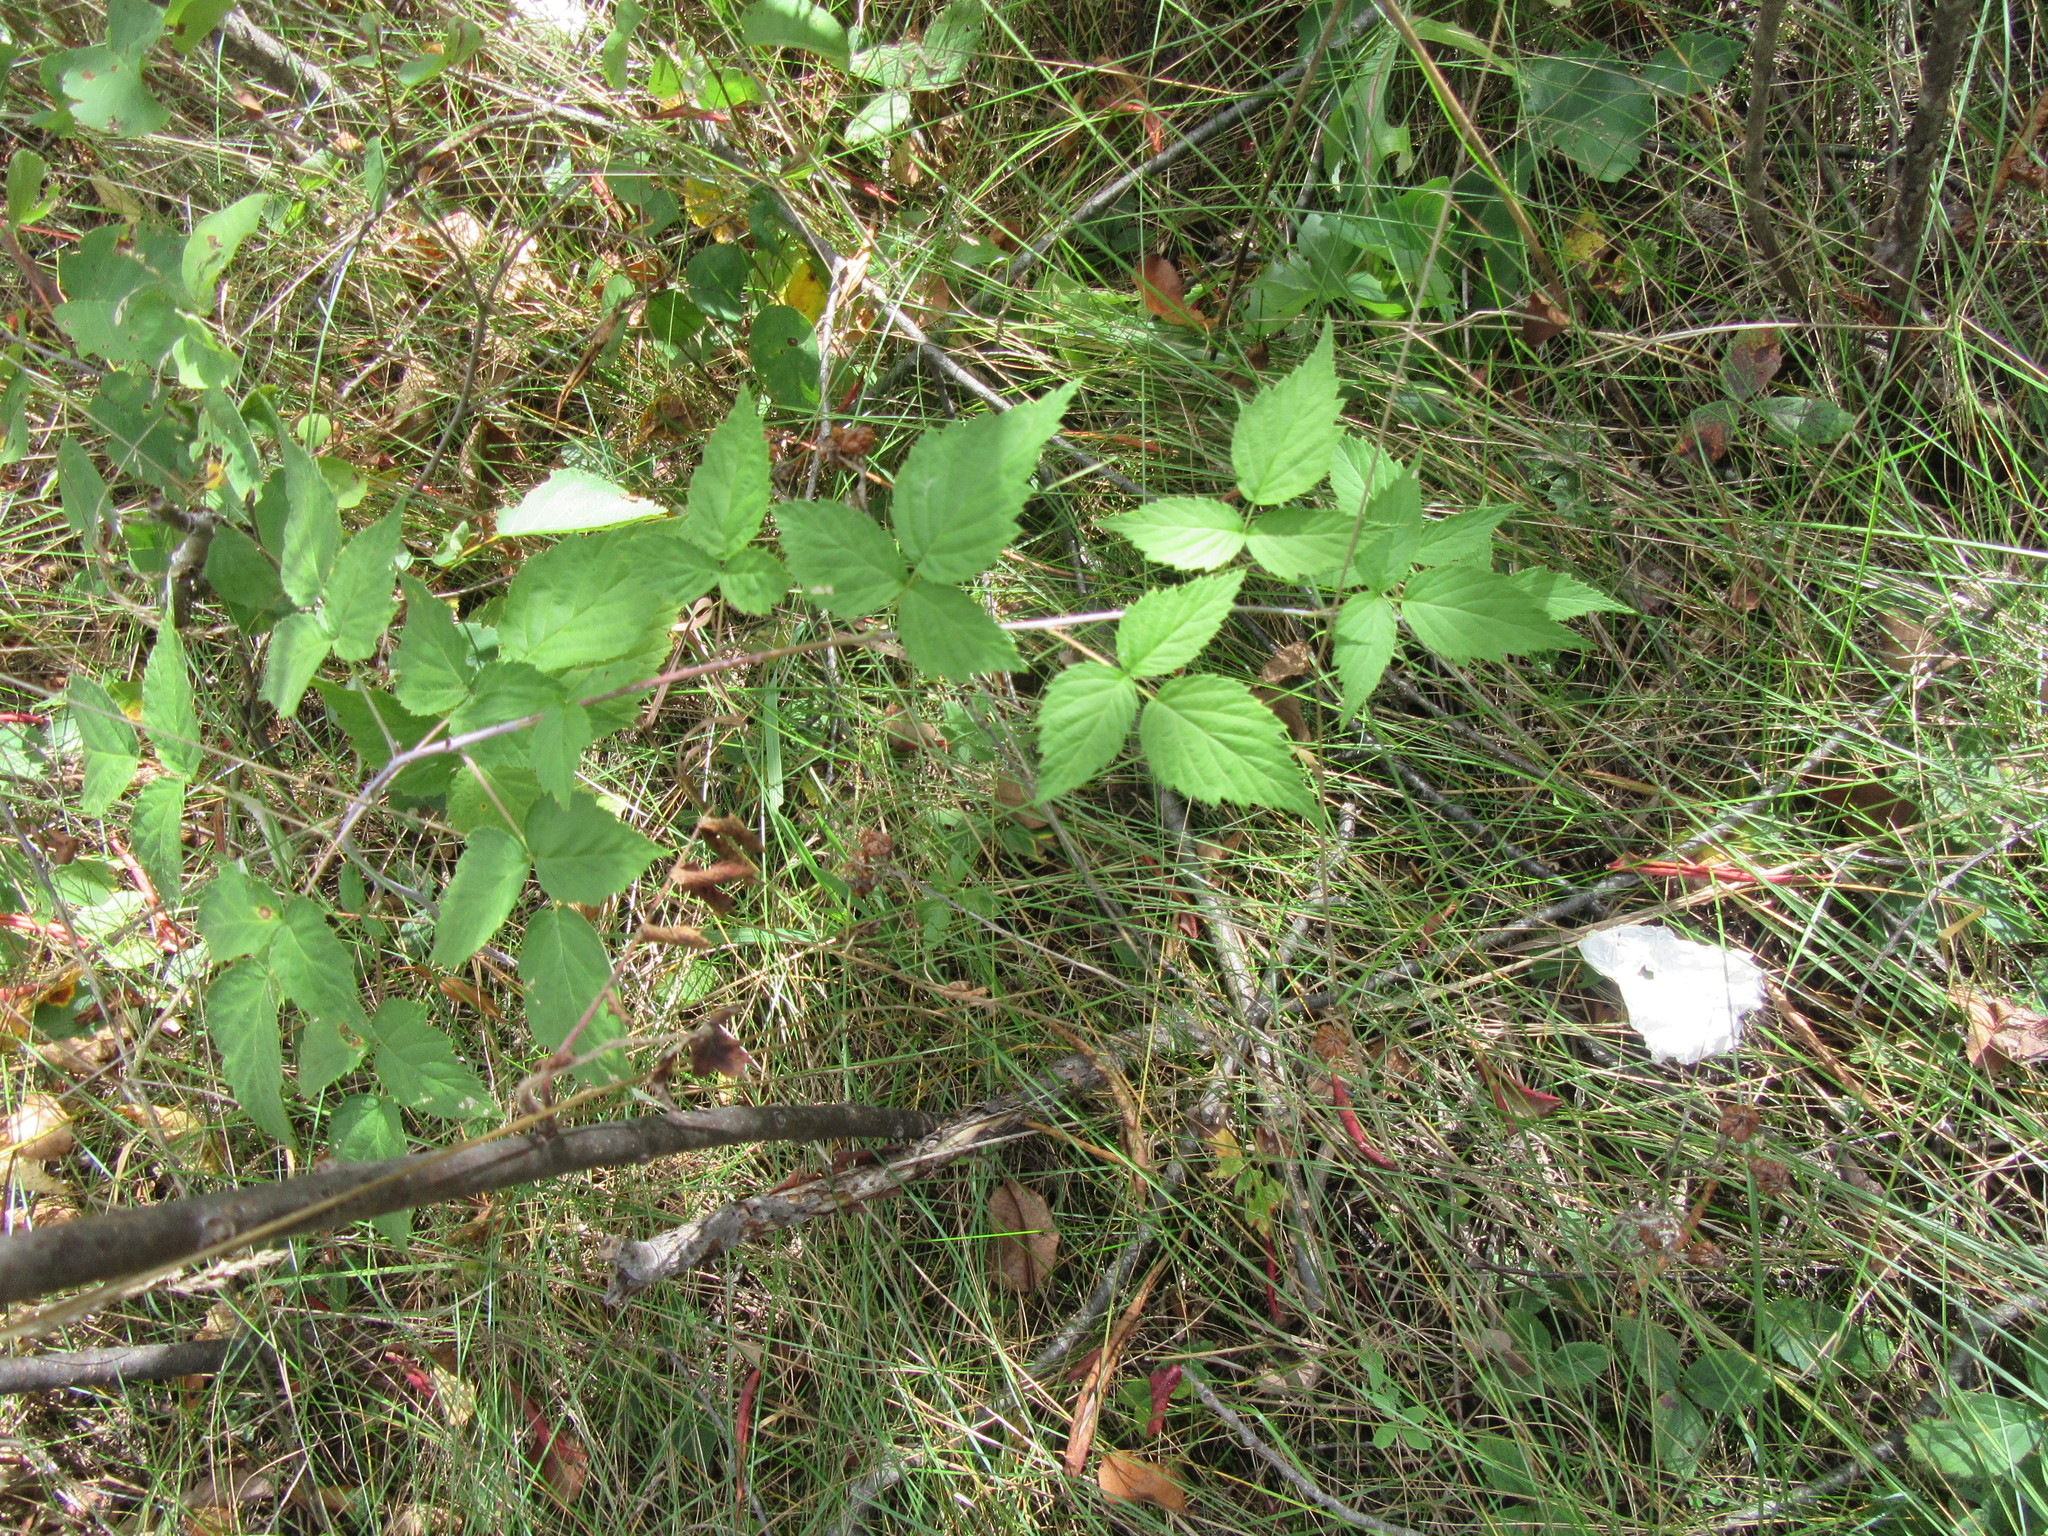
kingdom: Plantae
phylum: Tracheophyta
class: Magnoliopsida
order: Rosales
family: Rosaceae
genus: Rubus
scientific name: Rubus occidentalis
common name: Black raspberry
